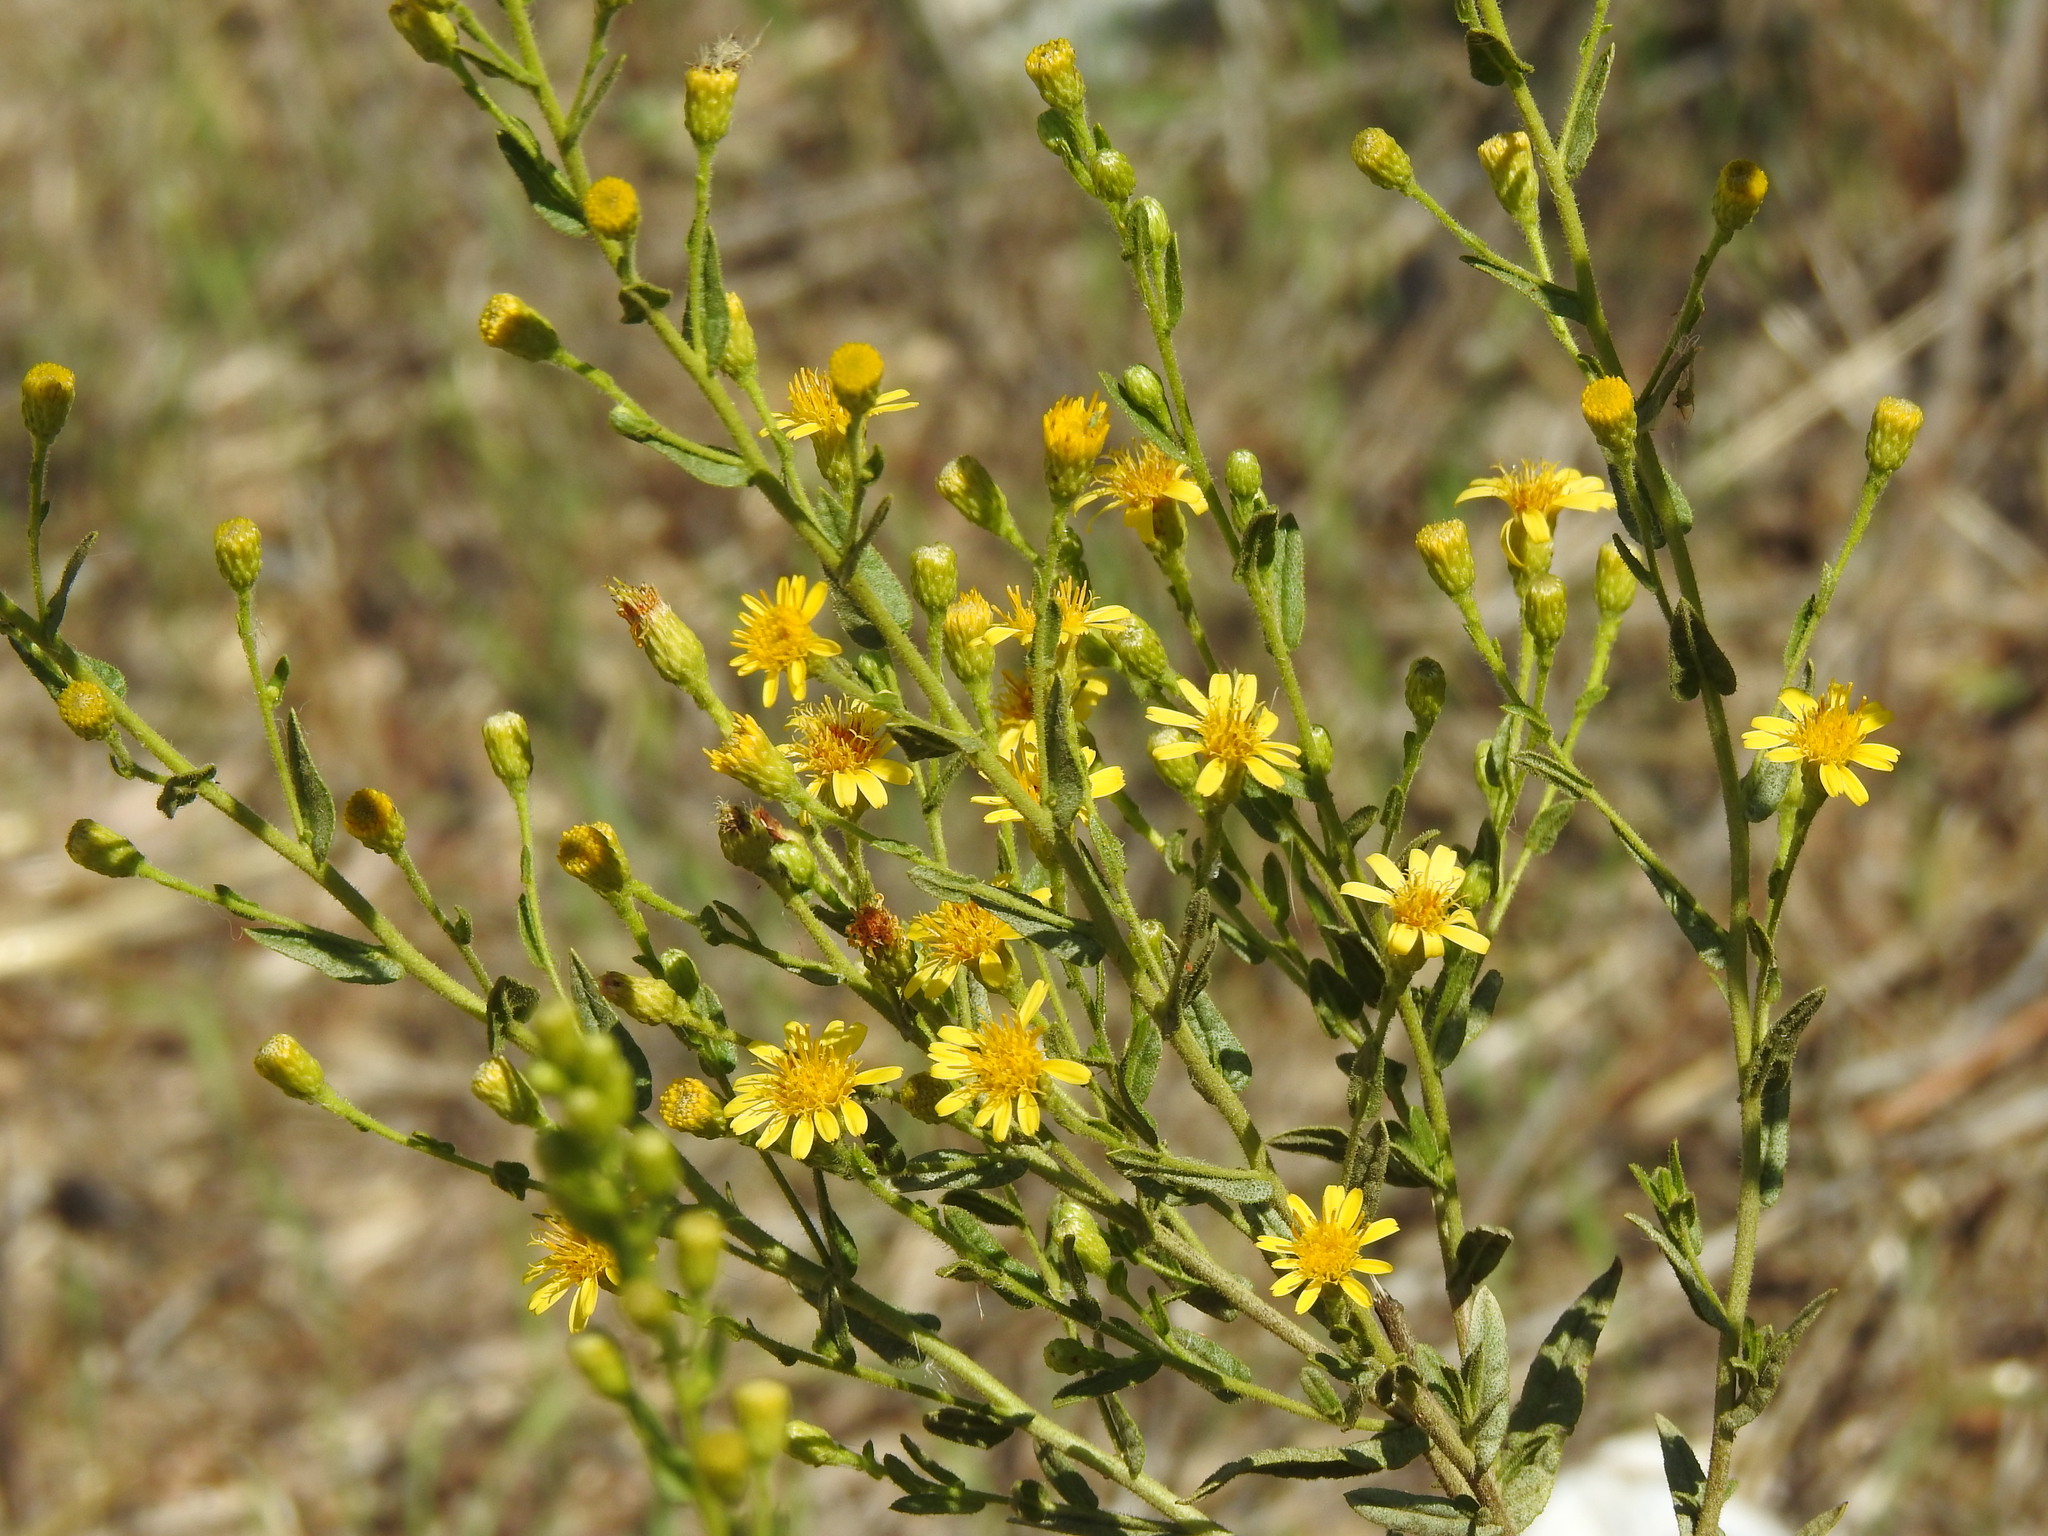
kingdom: Plantae
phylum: Tracheophyta
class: Magnoliopsida
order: Asterales
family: Asteraceae
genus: Dittrichia
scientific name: Dittrichia viscosa
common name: Woody fleabane
